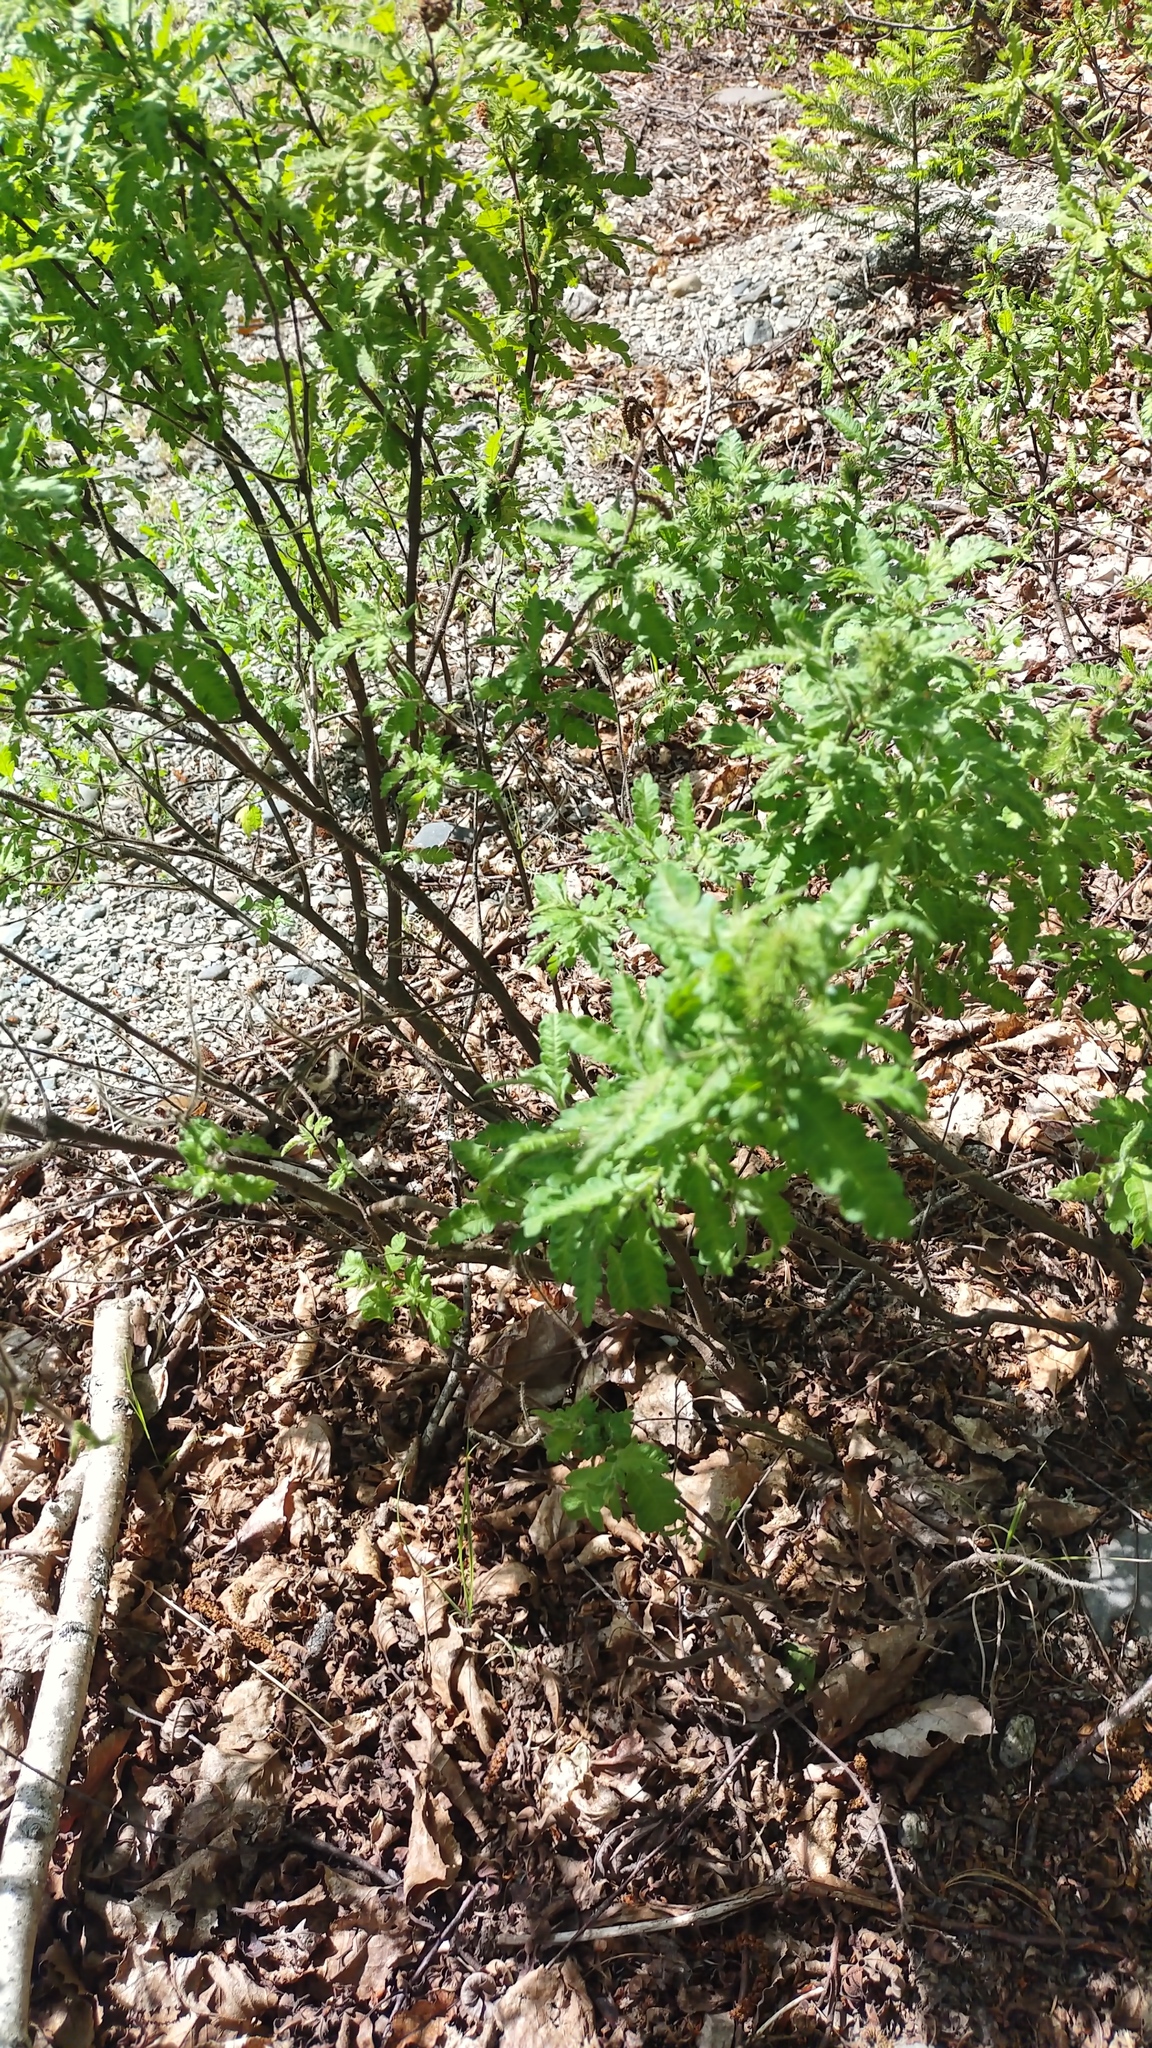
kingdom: Plantae
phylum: Tracheophyta
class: Magnoliopsida
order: Fagales
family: Myricaceae
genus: Comptonia
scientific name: Comptonia peregrina
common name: Sweet-fern
